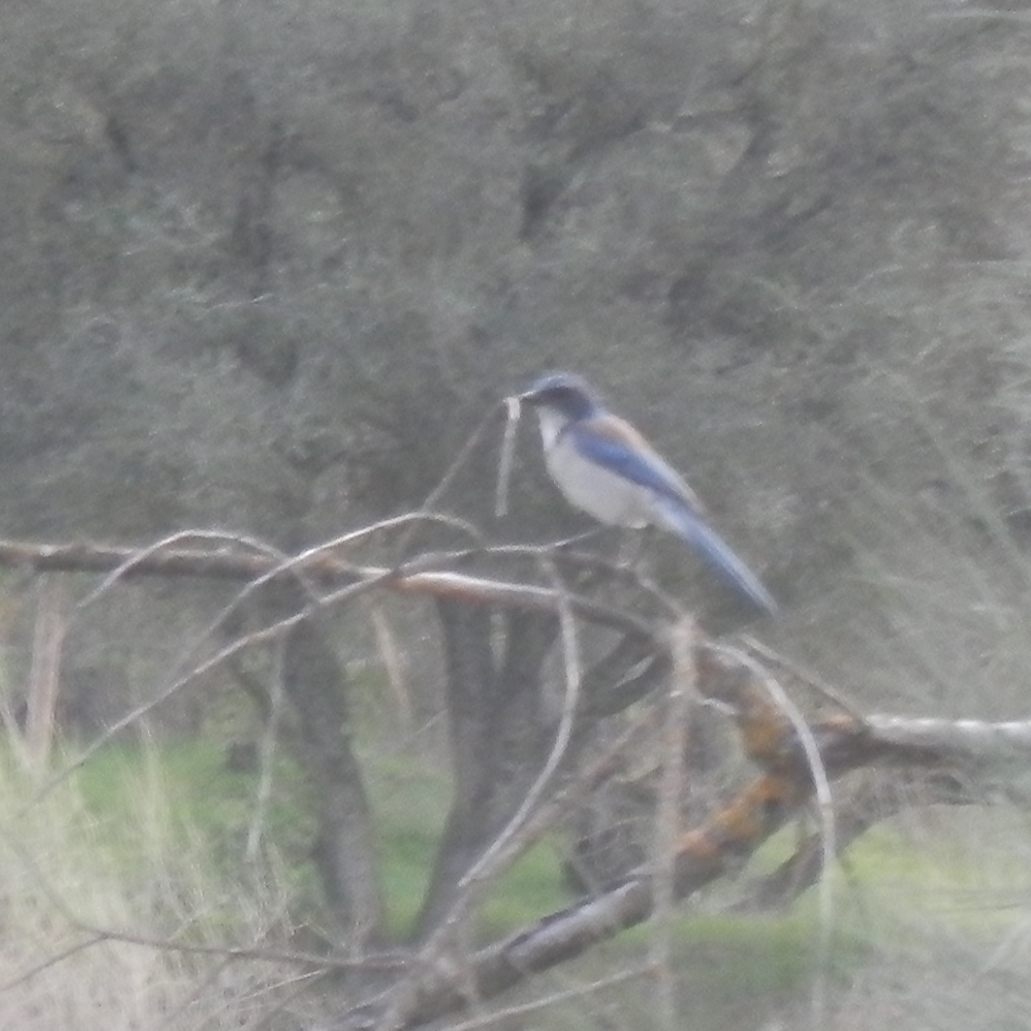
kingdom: Animalia
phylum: Chordata
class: Aves
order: Passeriformes
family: Corvidae
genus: Aphelocoma
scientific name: Aphelocoma californica
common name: California scrub-jay
